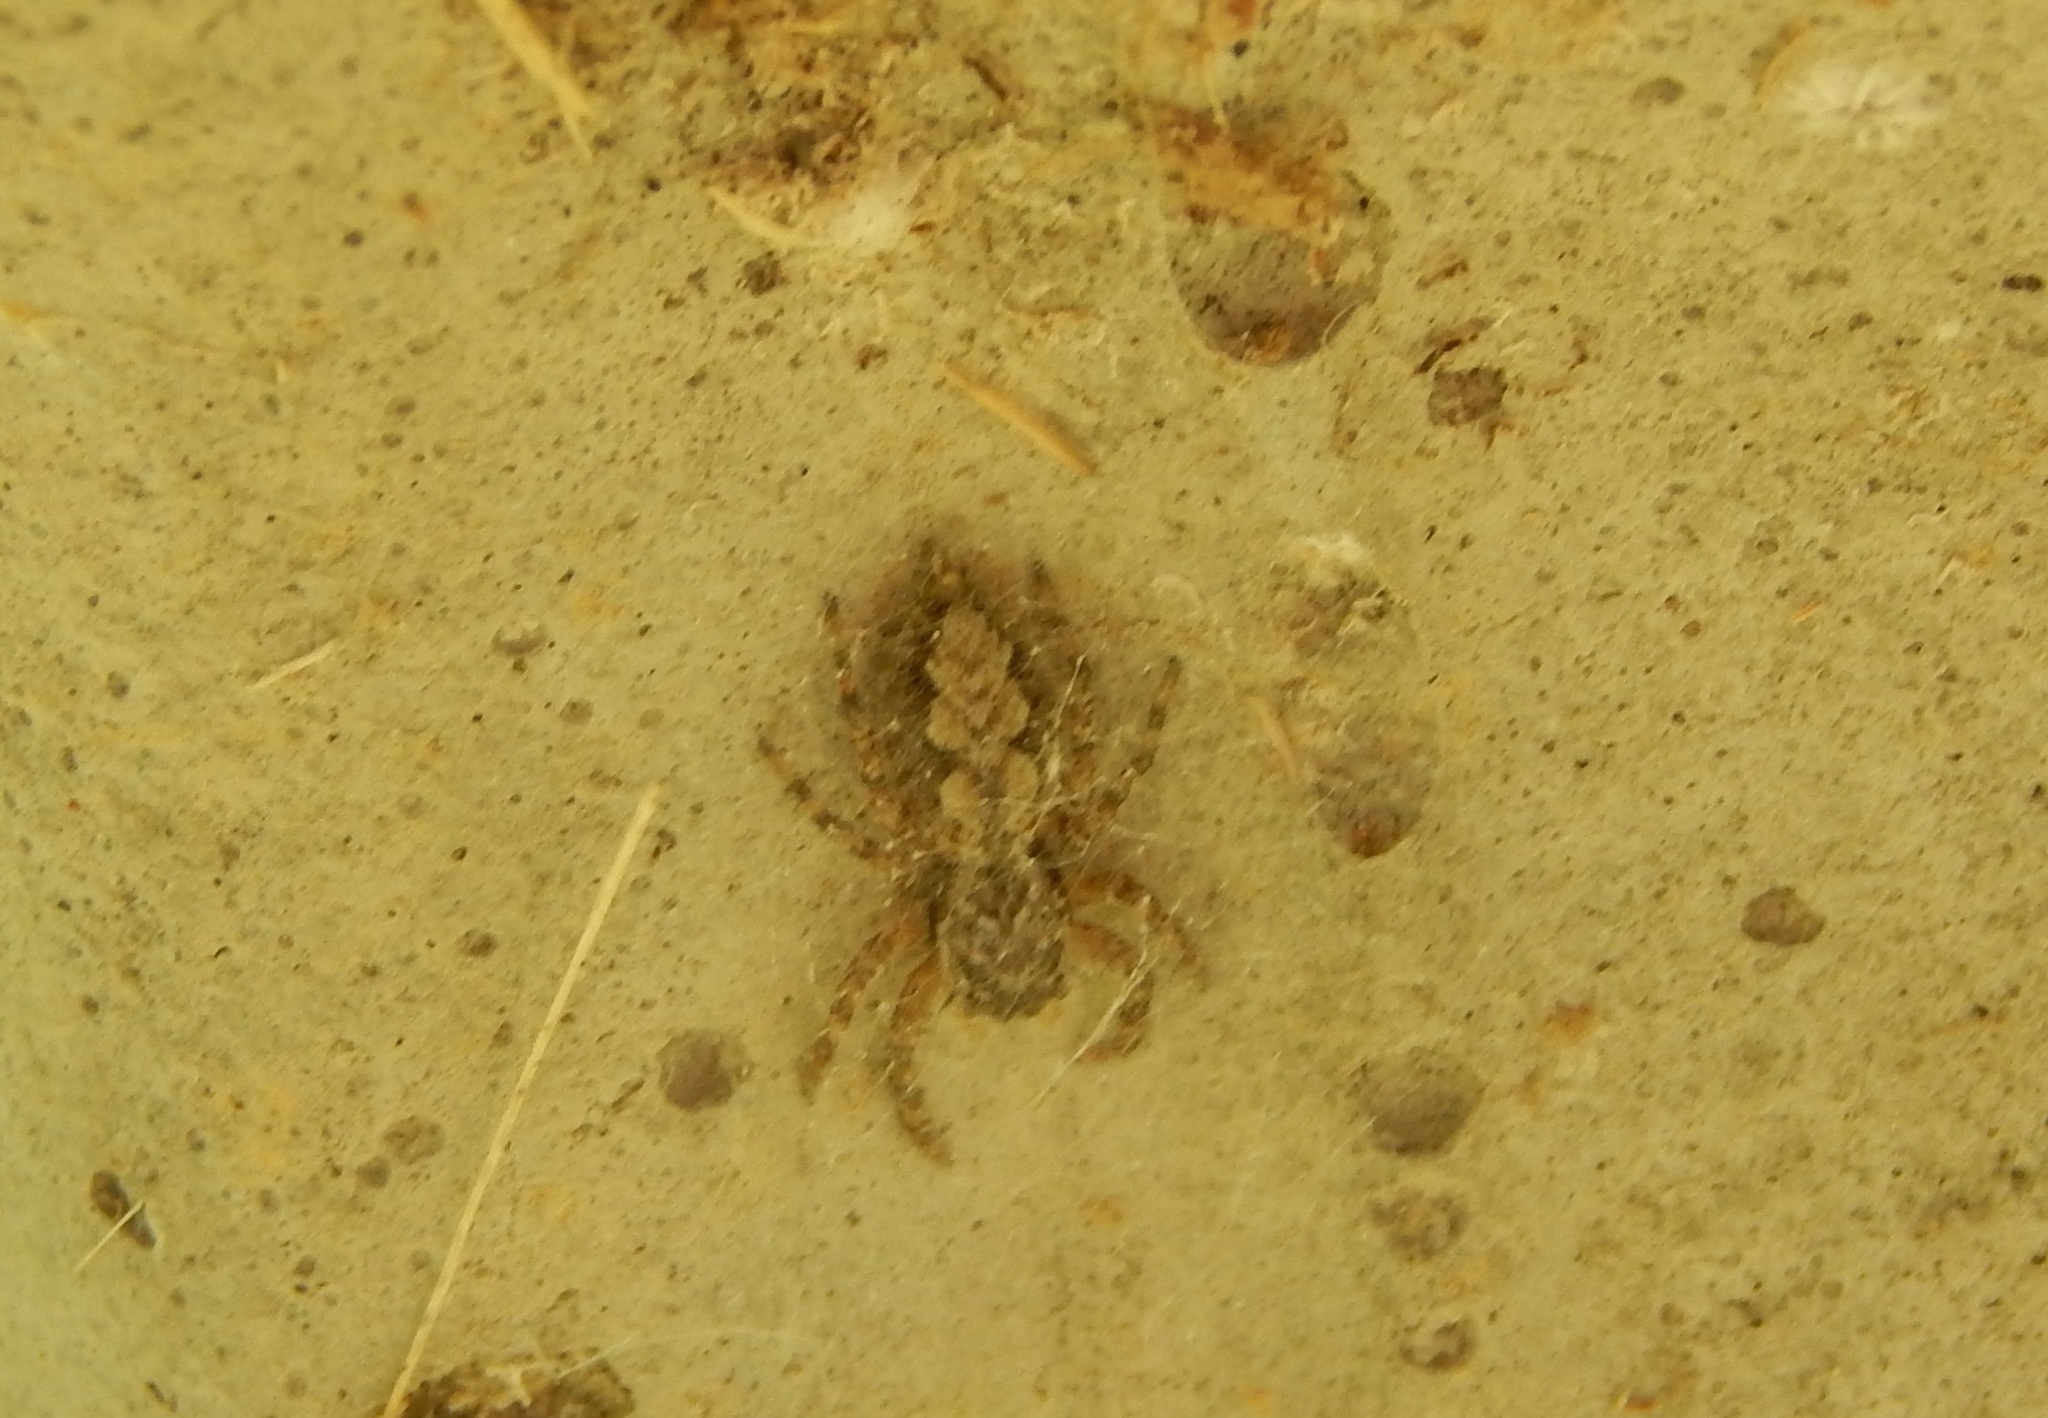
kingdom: Animalia
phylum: Arthropoda
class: Arachnida
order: Araneae
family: Salticidae
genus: Platycryptus
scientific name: Platycryptus undatus
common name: Tan jumping spider
